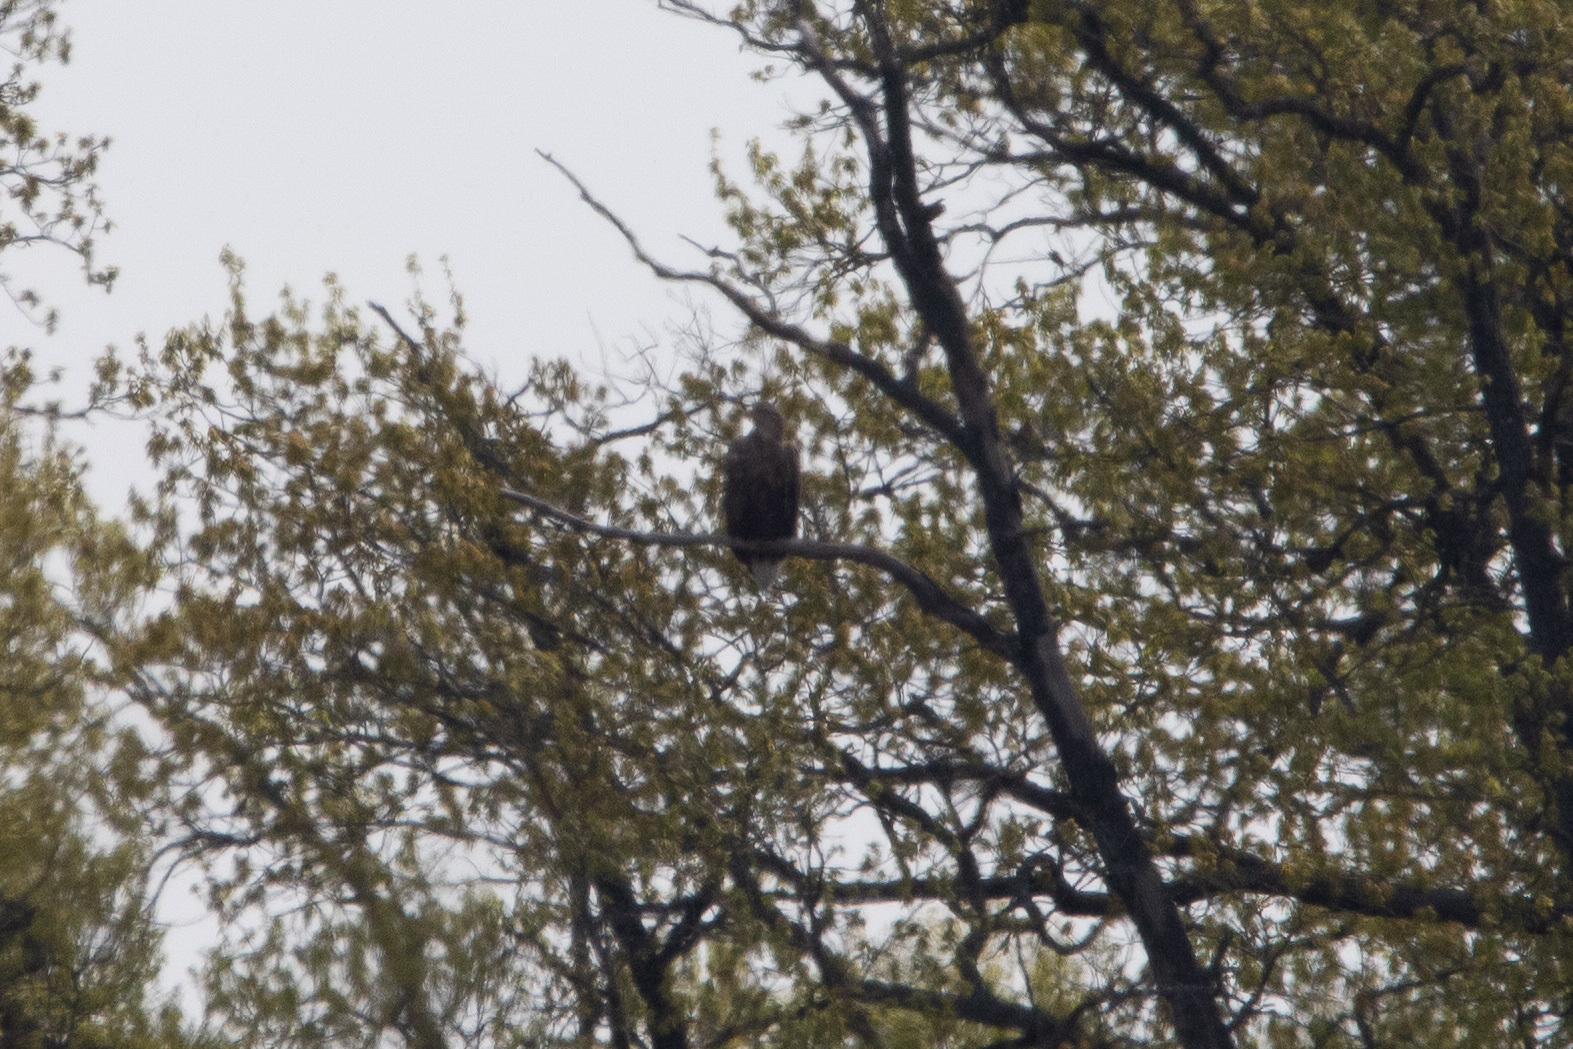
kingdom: Animalia
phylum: Chordata
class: Aves
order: Accipitriformes
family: Accipitridae
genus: Haliaeetus
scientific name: Haliaeetus albicilla
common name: White-tailed eagle
